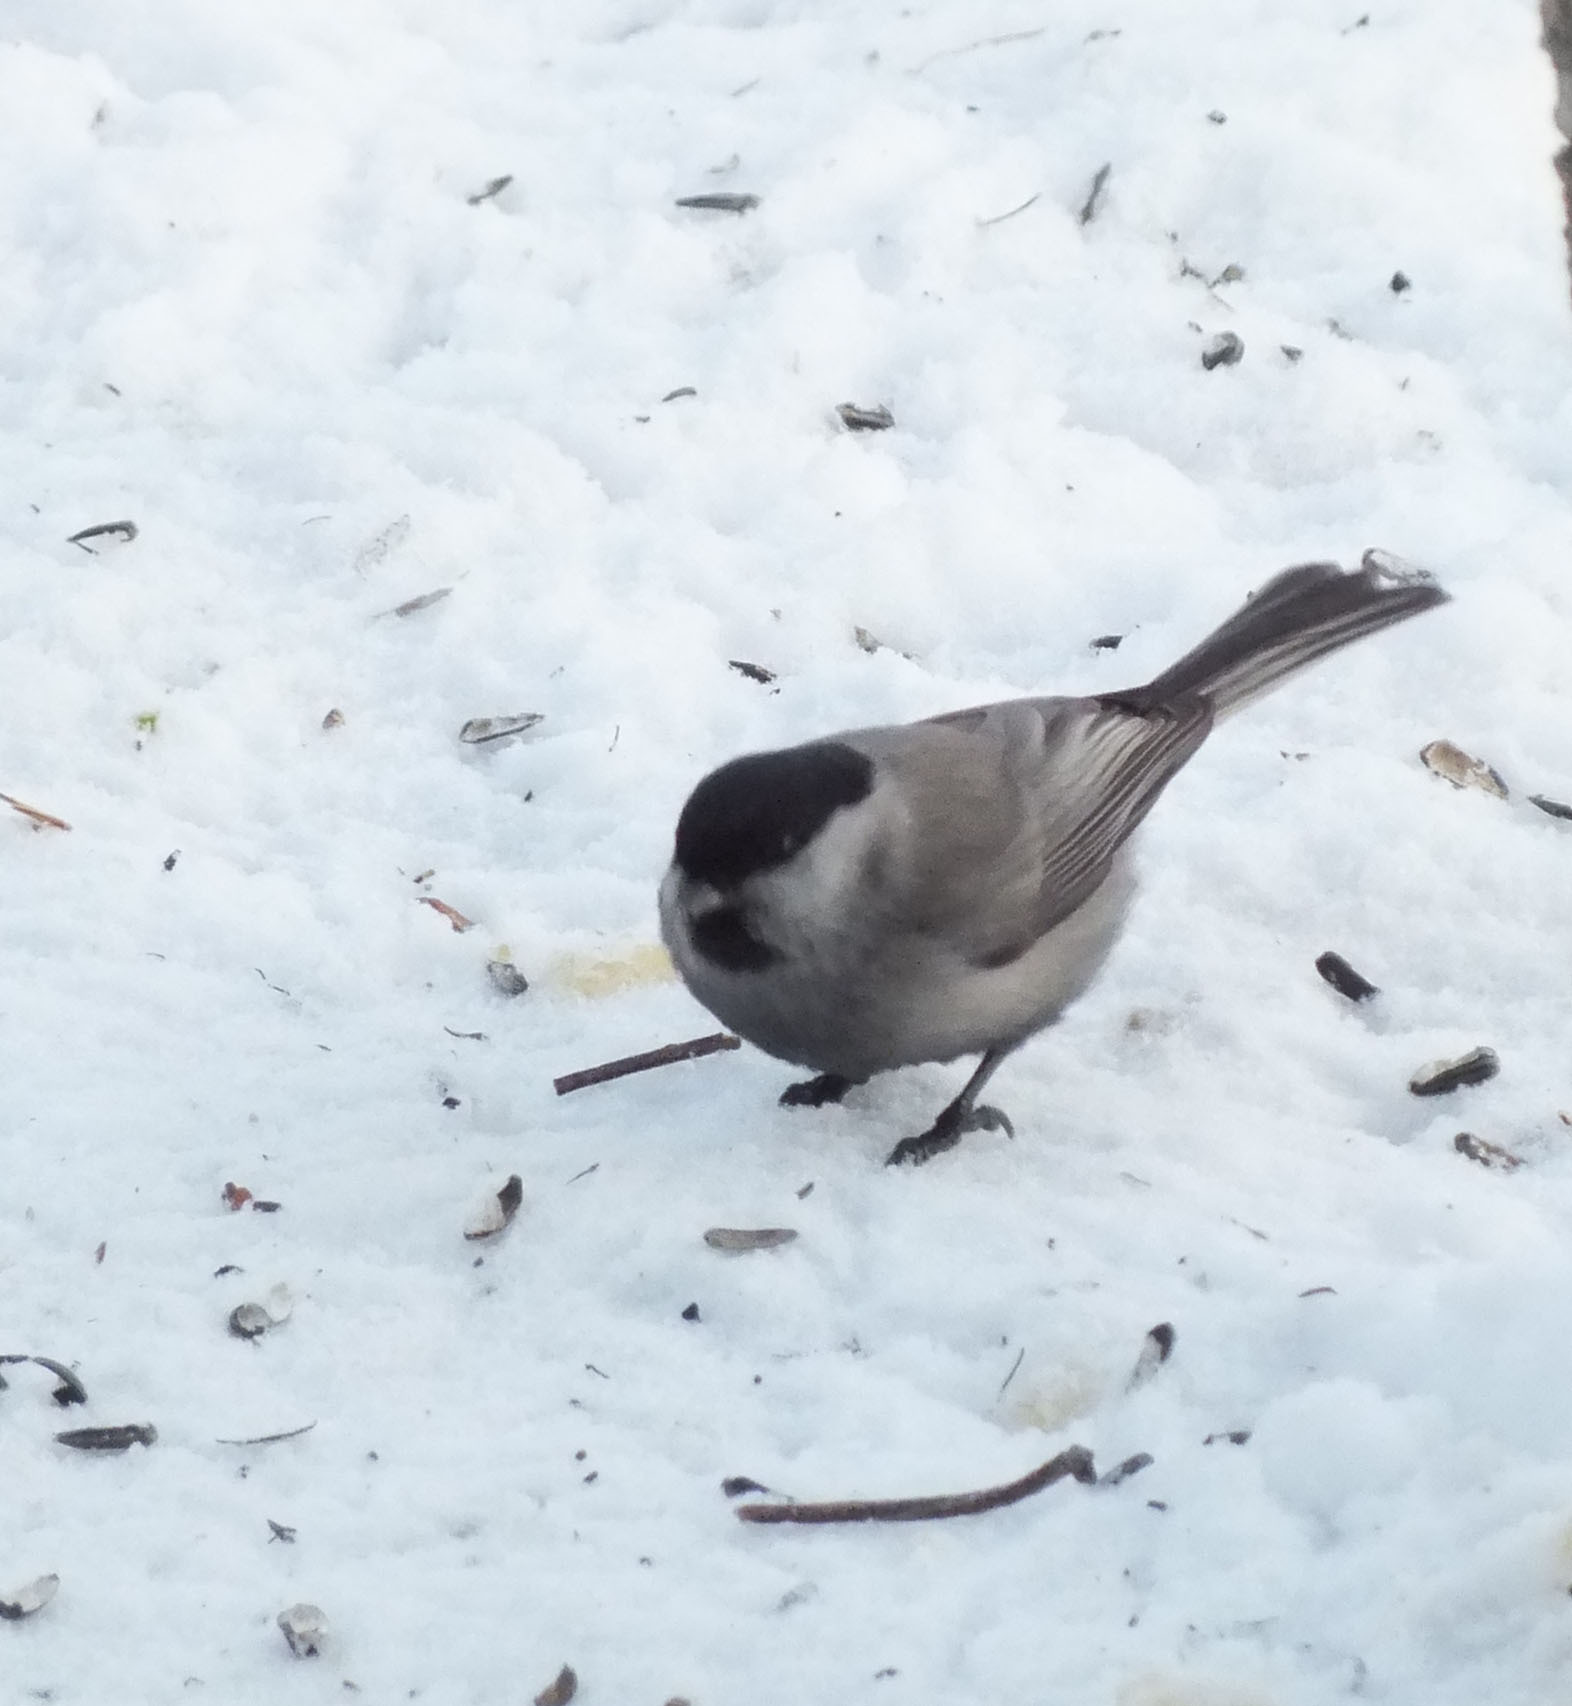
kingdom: Animalia
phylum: Chordata
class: Aves
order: Passeriformes
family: Paridae
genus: Poecile
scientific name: Poecile montanus
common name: Willow tit
